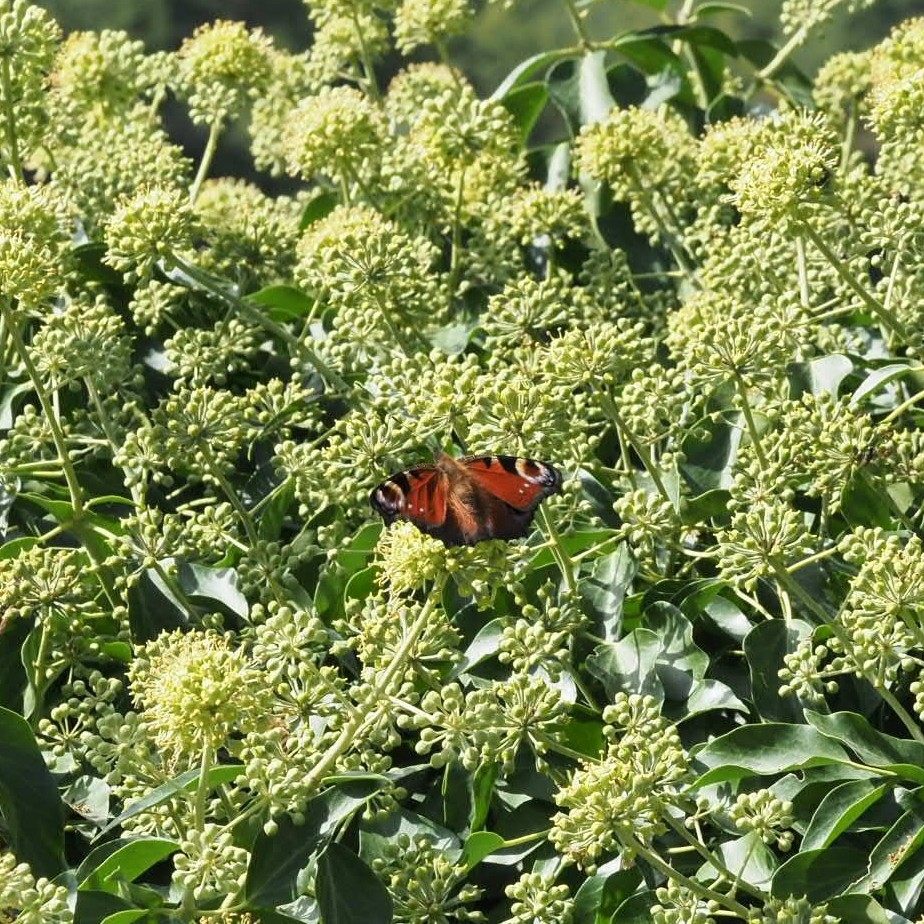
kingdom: Animalia
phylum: Arthropoda
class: Insecta
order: Lepidoptera
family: Nymphalidae
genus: Aglais
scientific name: Aglais io
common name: Peacock
